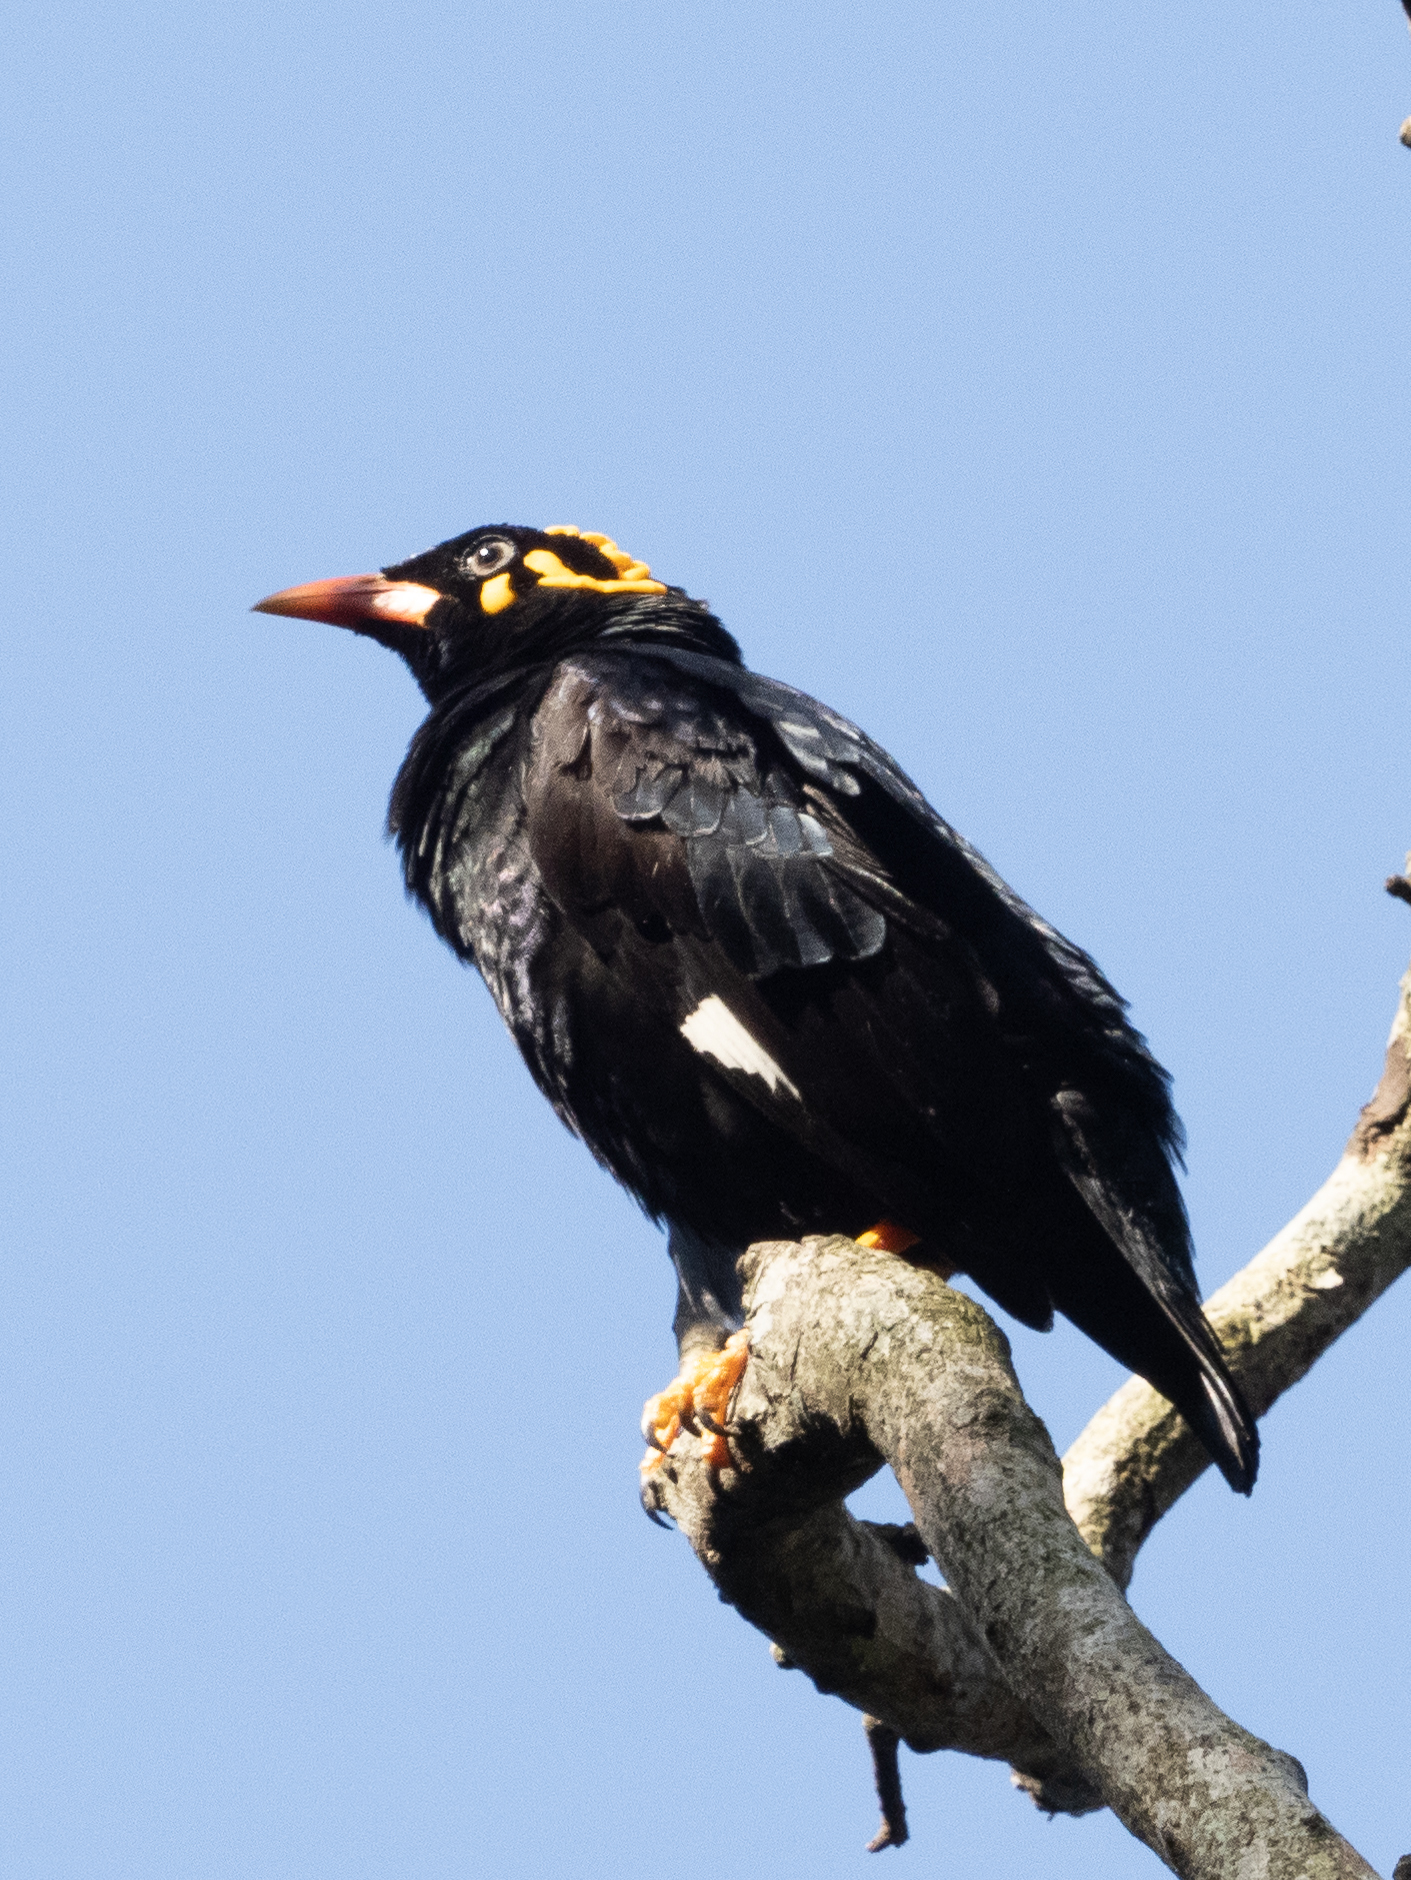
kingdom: Animalia
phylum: Chordata
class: Aves
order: Passeriformes
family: Sturnidae
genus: Gracula
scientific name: Gracula indica
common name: Southern hill myna
